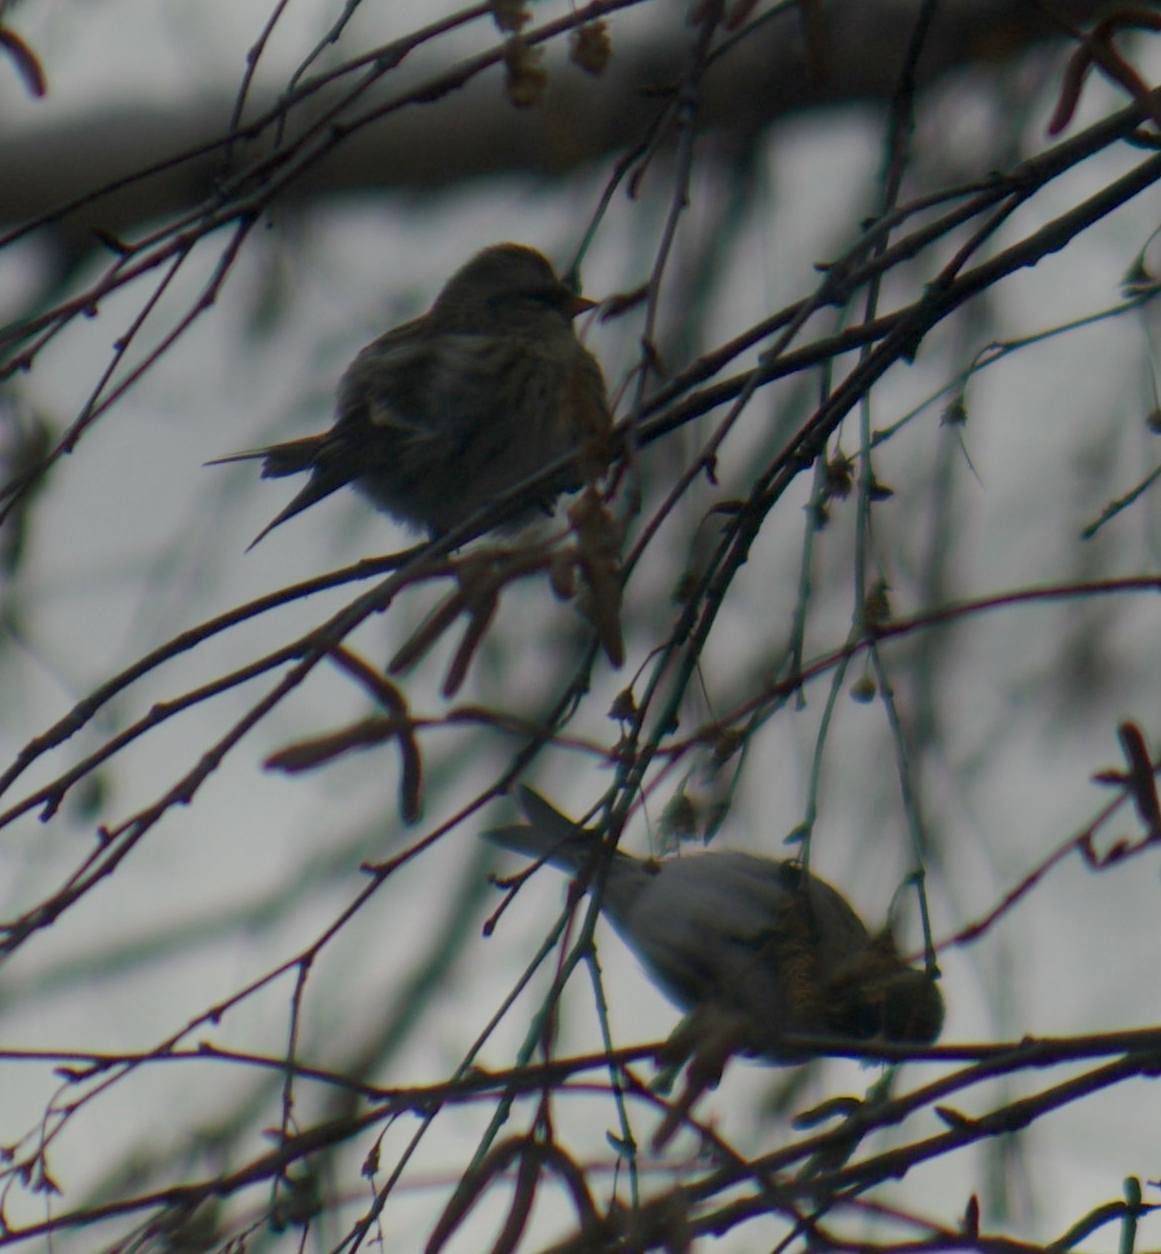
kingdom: Animalia
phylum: Chordata
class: Aves
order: Passeriformes
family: Fringillidae
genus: Acanthis
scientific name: Acanthis flammea
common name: Common redpoll
